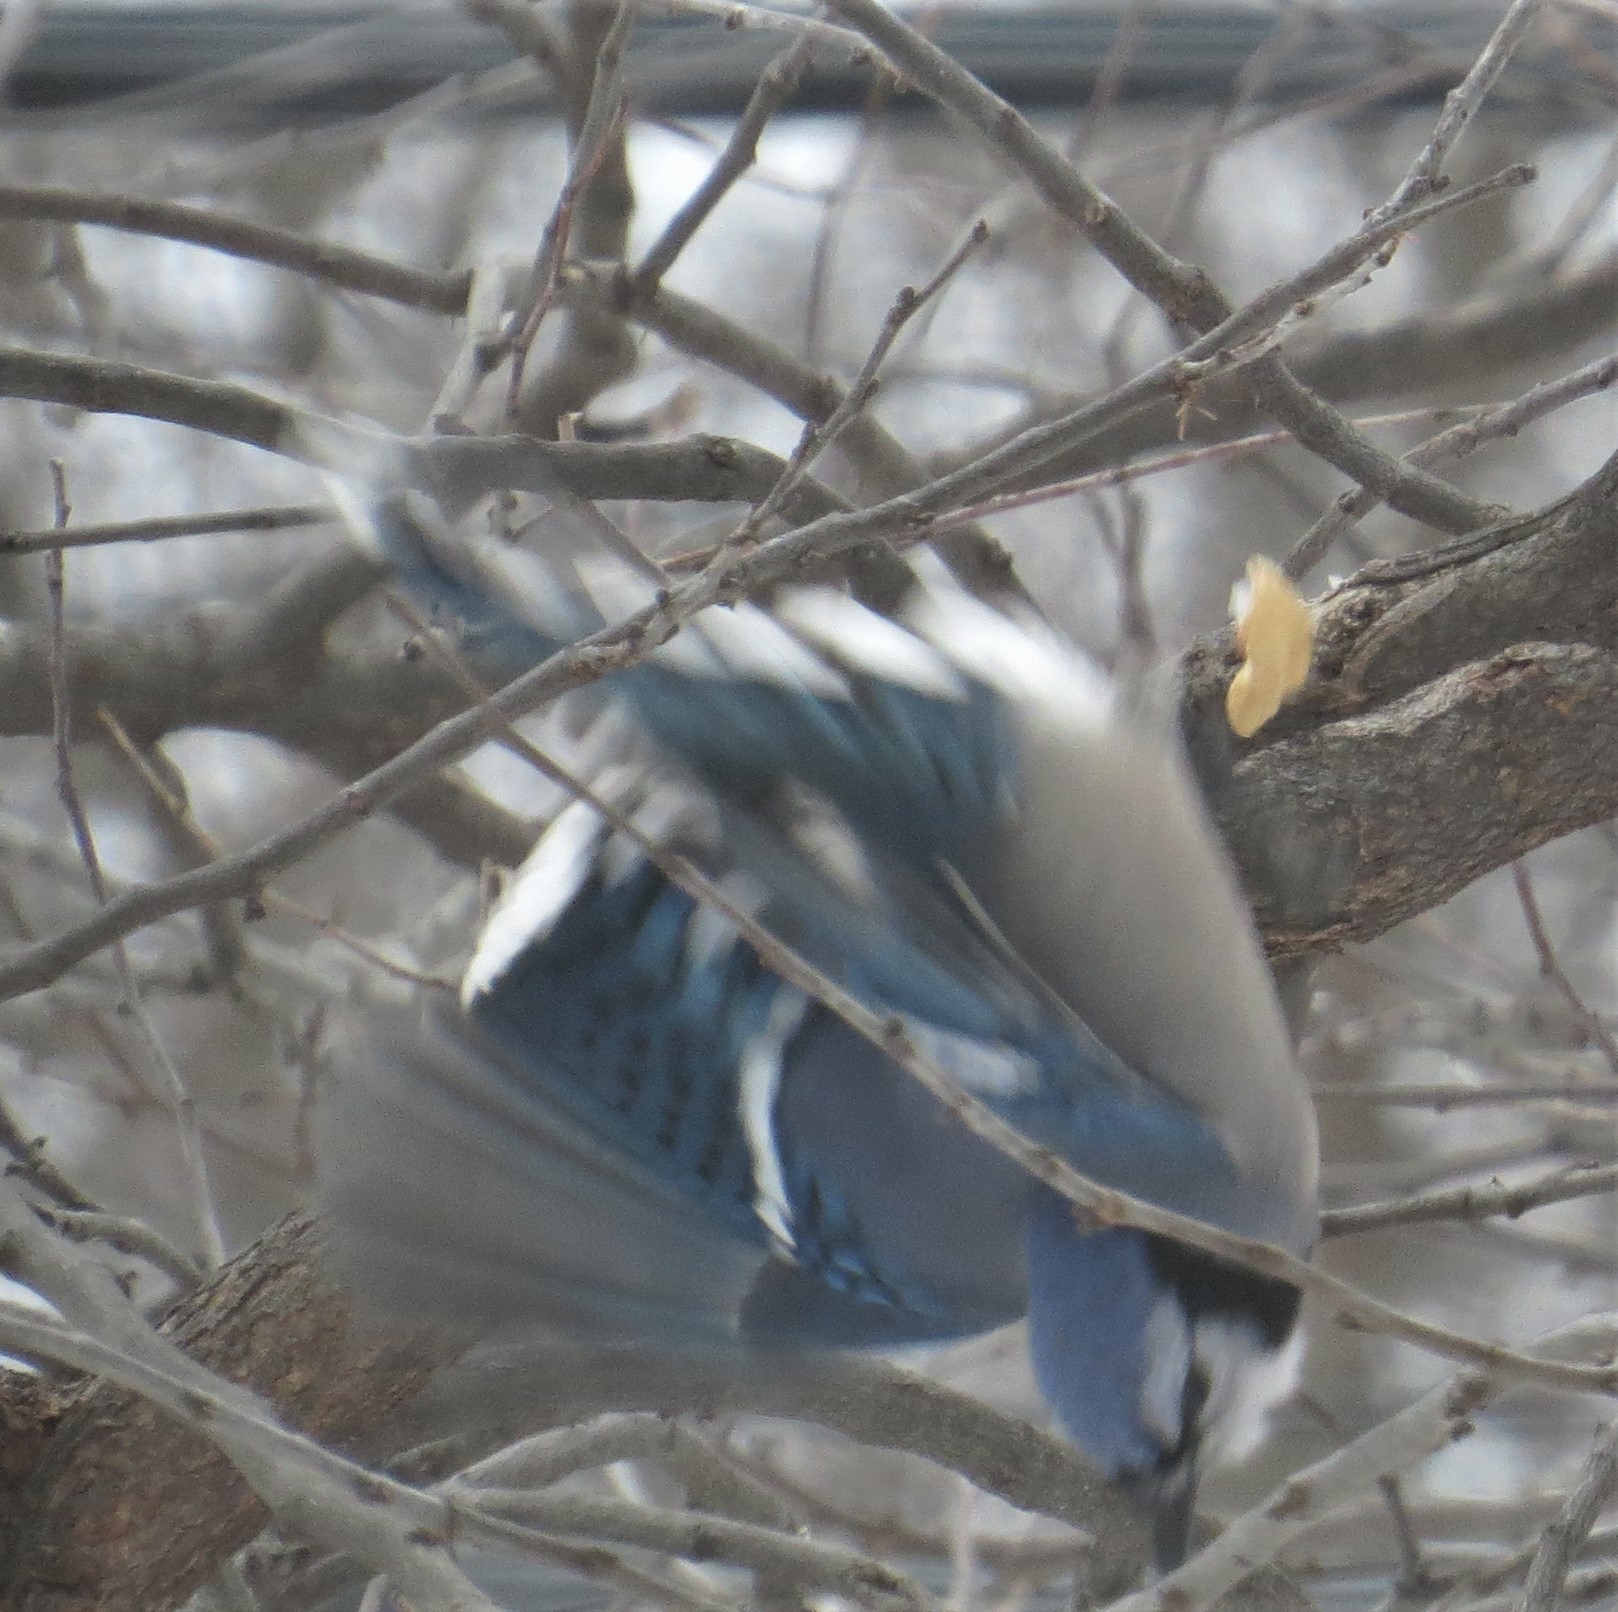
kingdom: Animalia
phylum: Chordata
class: Aves
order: Passeriformes
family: Corvidae
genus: Cyanocitta
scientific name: Cyanocitta cristata
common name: Blue jay
